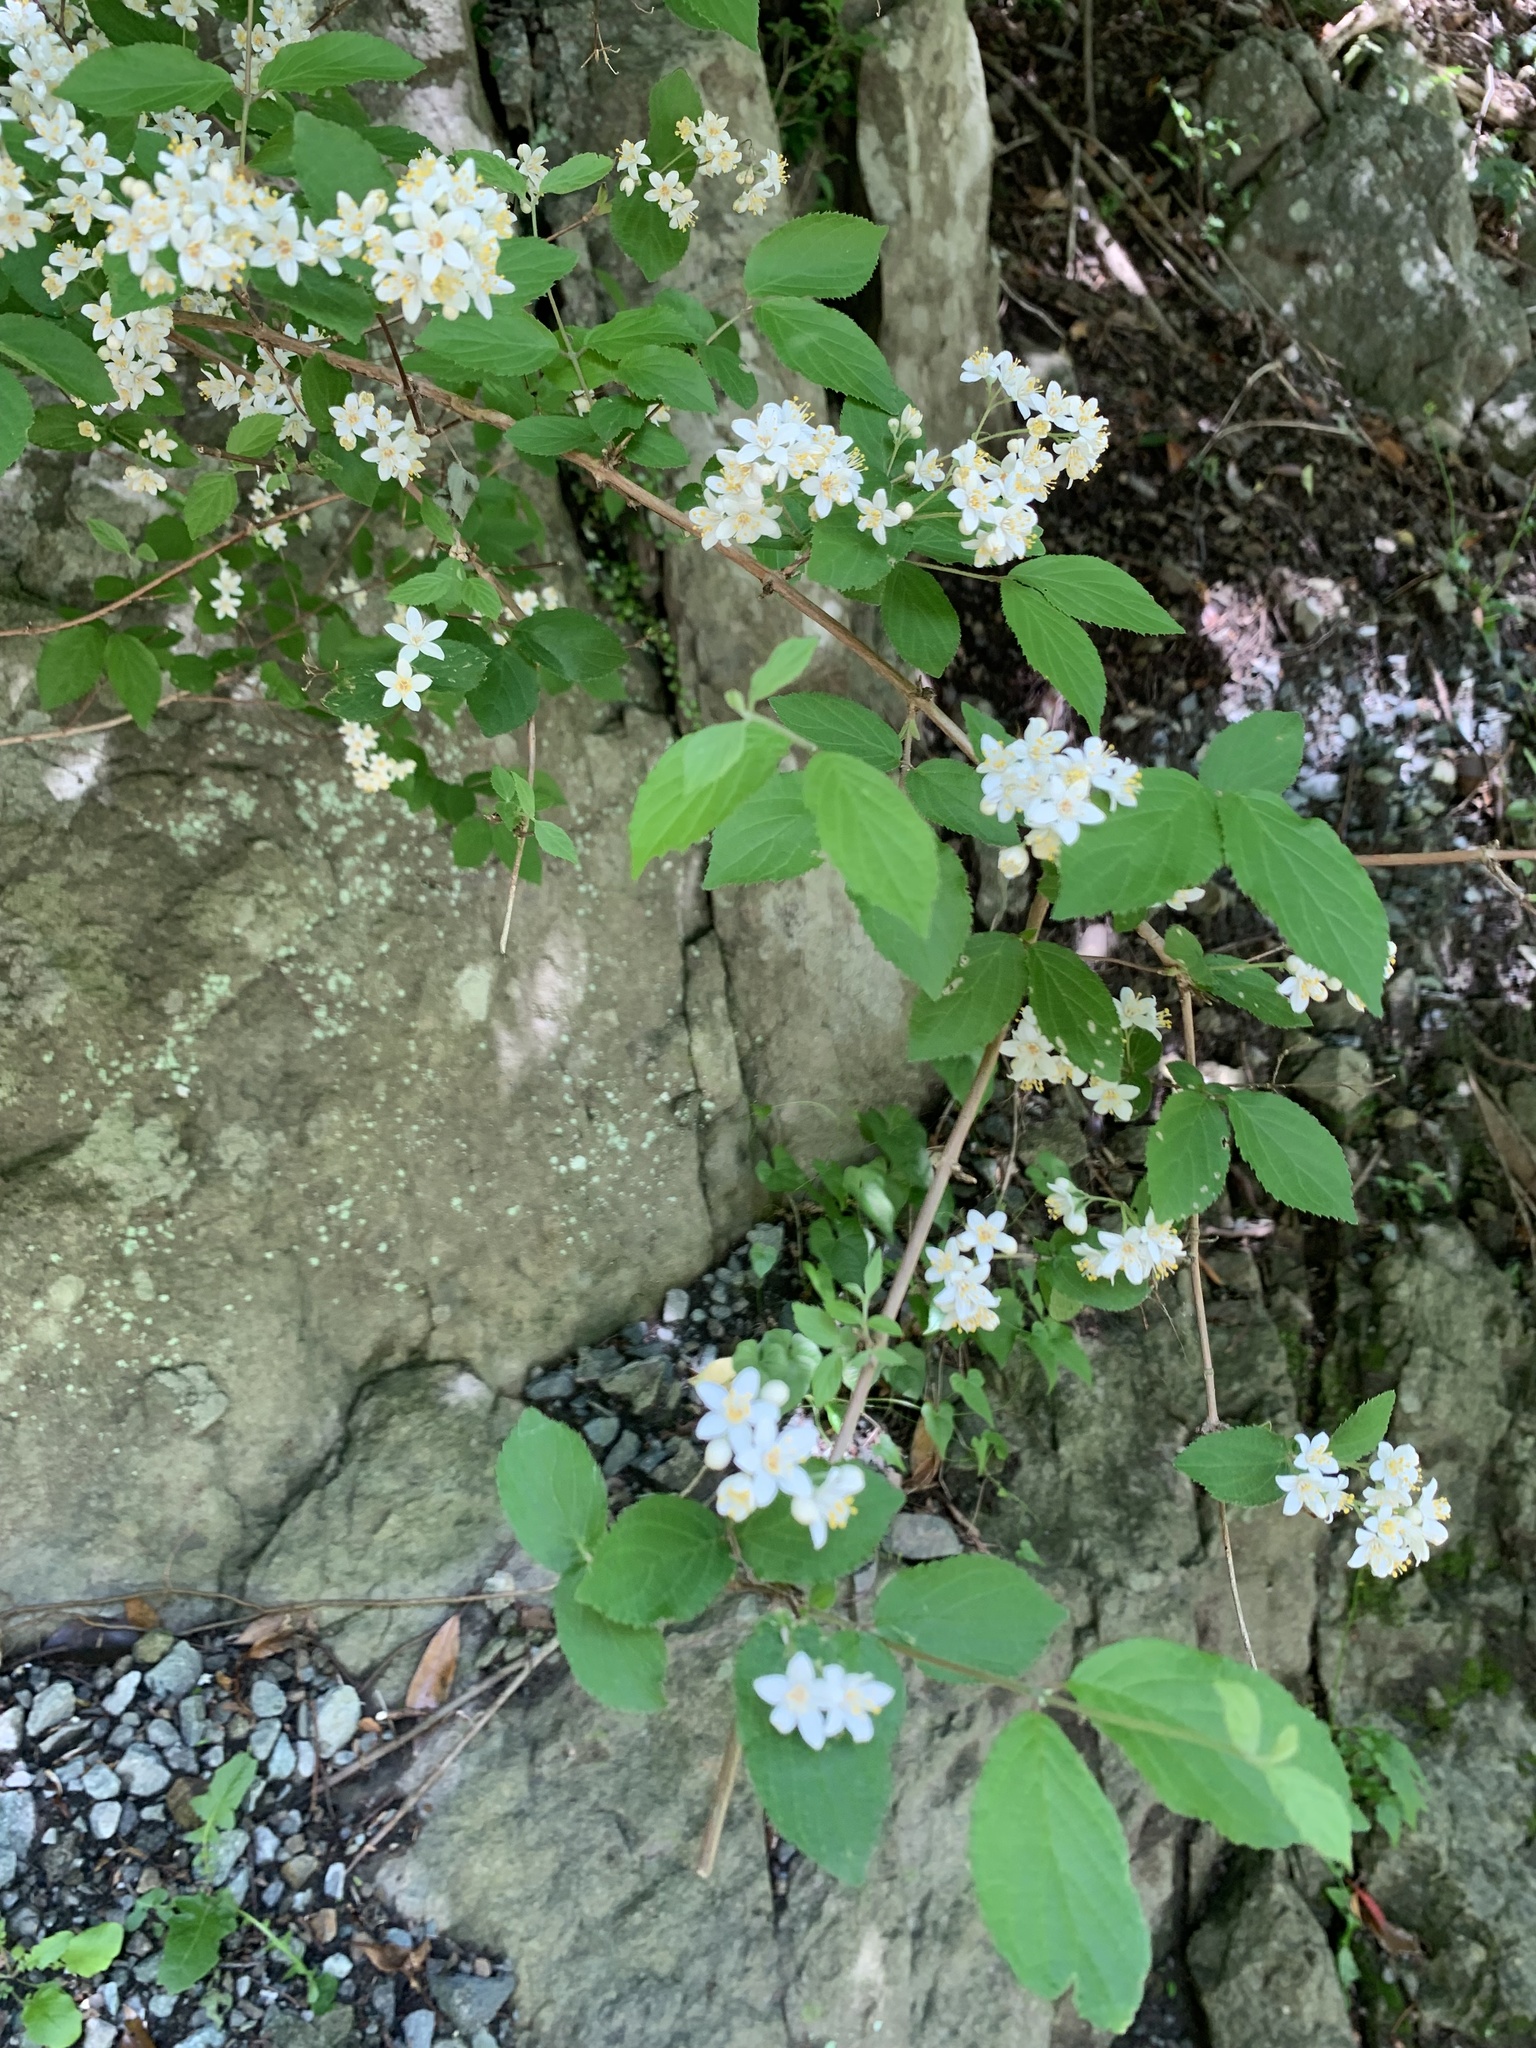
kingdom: Plantae
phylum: Tracheophyta
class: Magnoliopsida
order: Cornales
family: Hydrangeaceae
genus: Deutzia
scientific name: Deutzia scabra
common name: Deutzia
